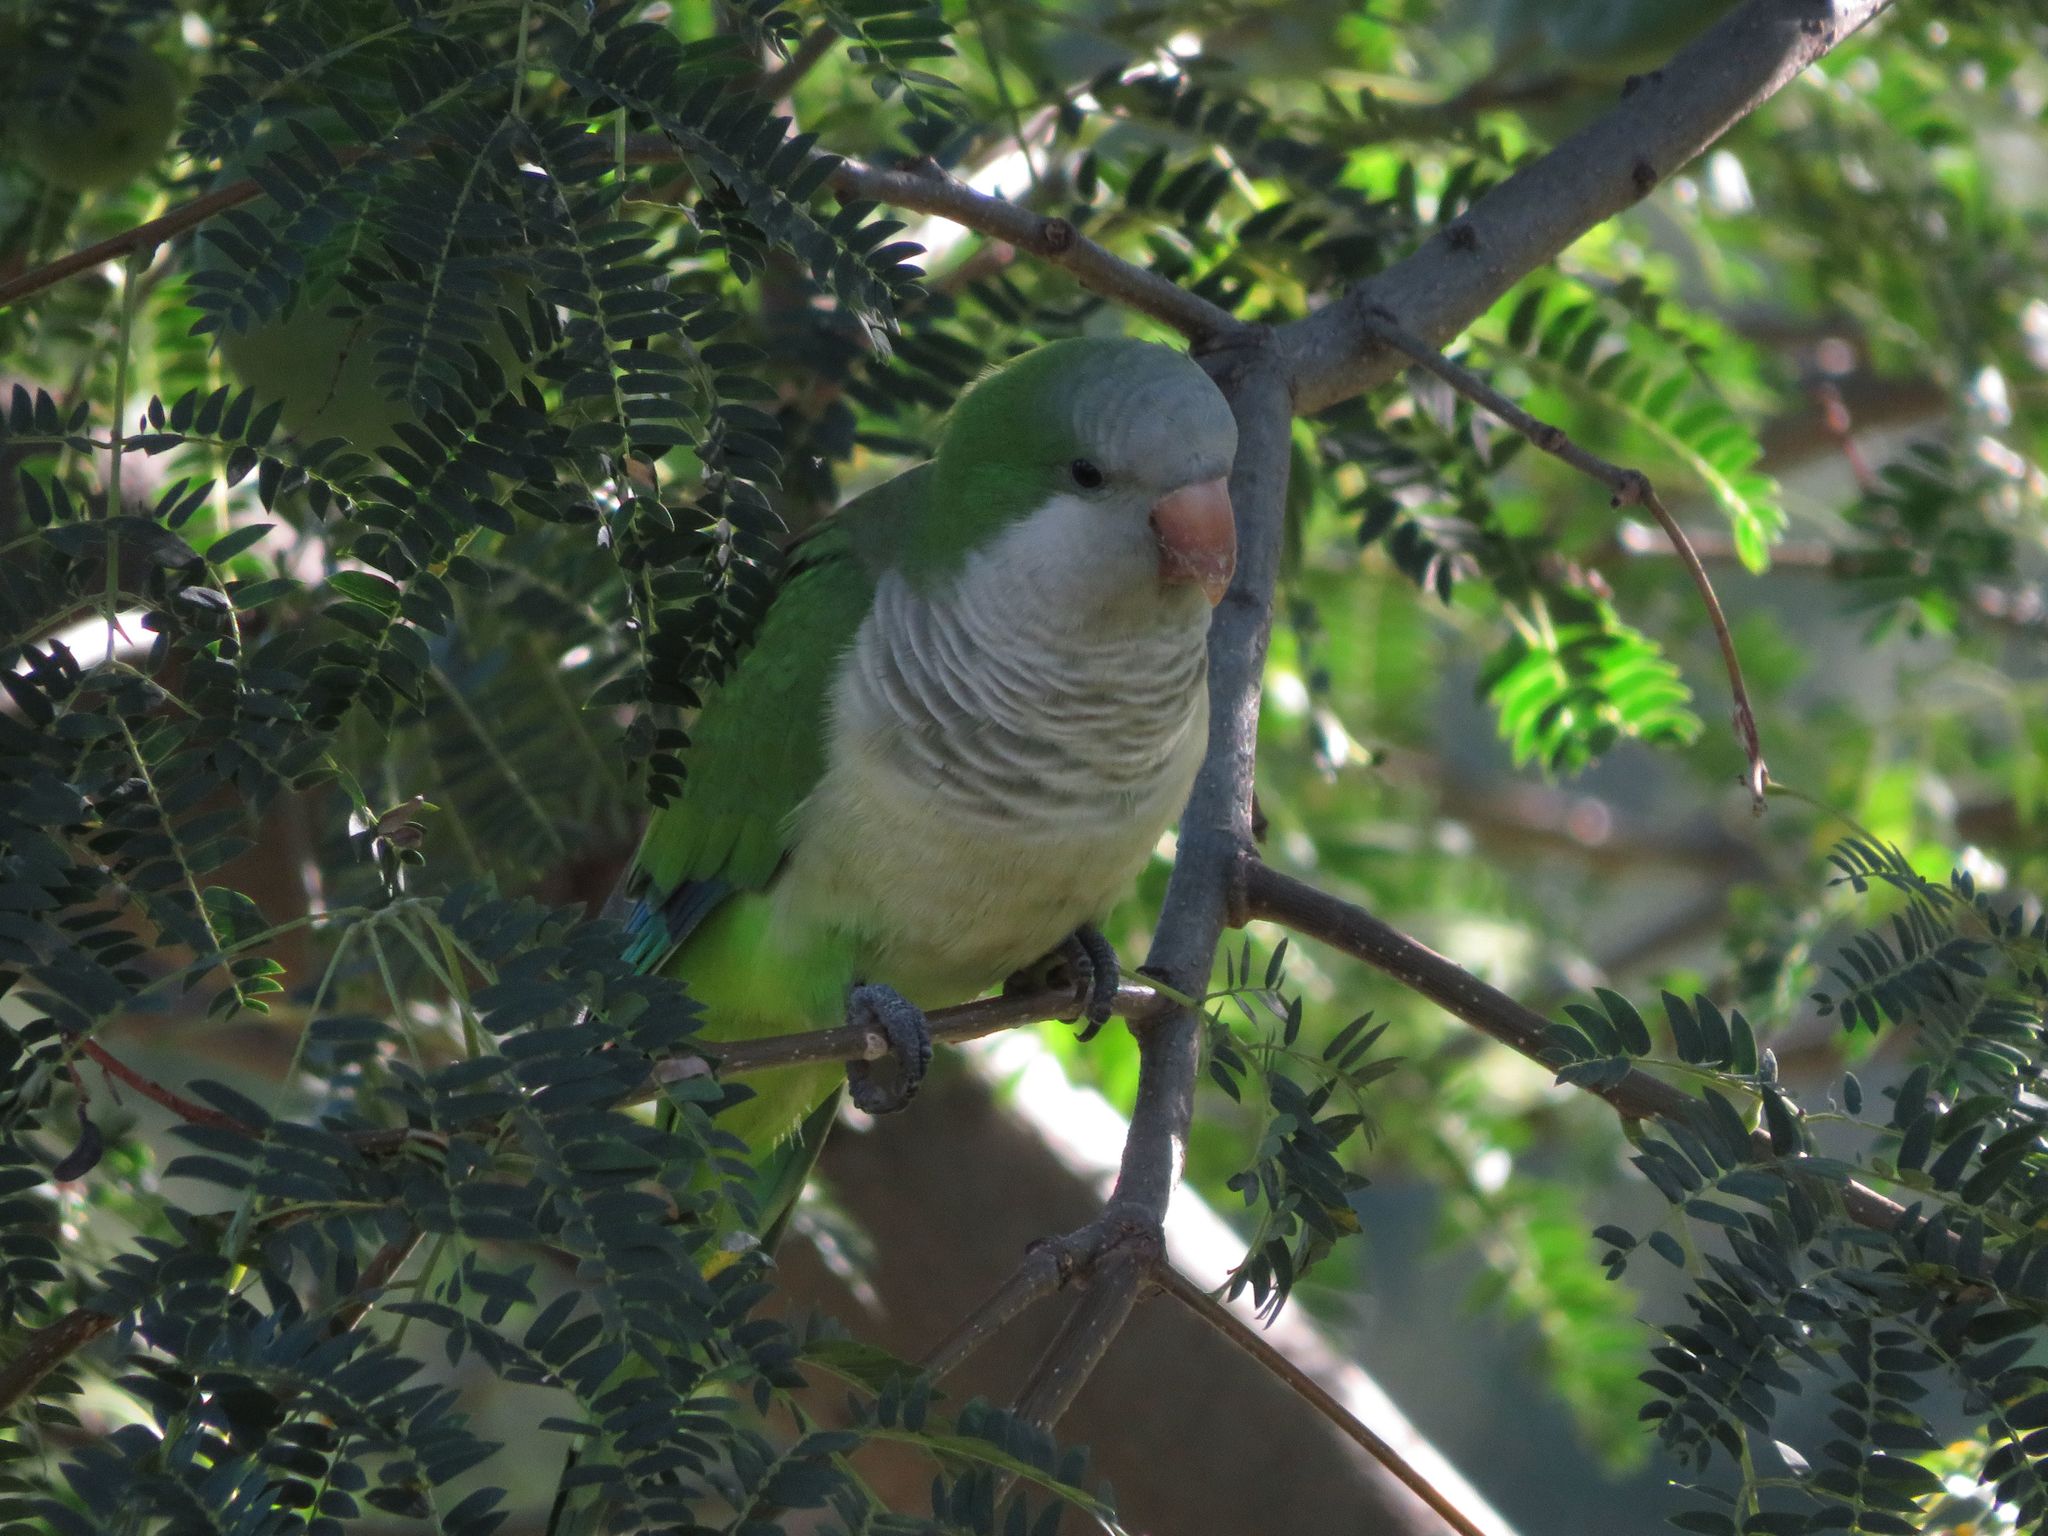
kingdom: Animalia
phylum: Chordata
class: Aves
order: Psittaciformes
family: Psittacidae
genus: Myiopsitta
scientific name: Myiopsitta monachus
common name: Monk parakeet
